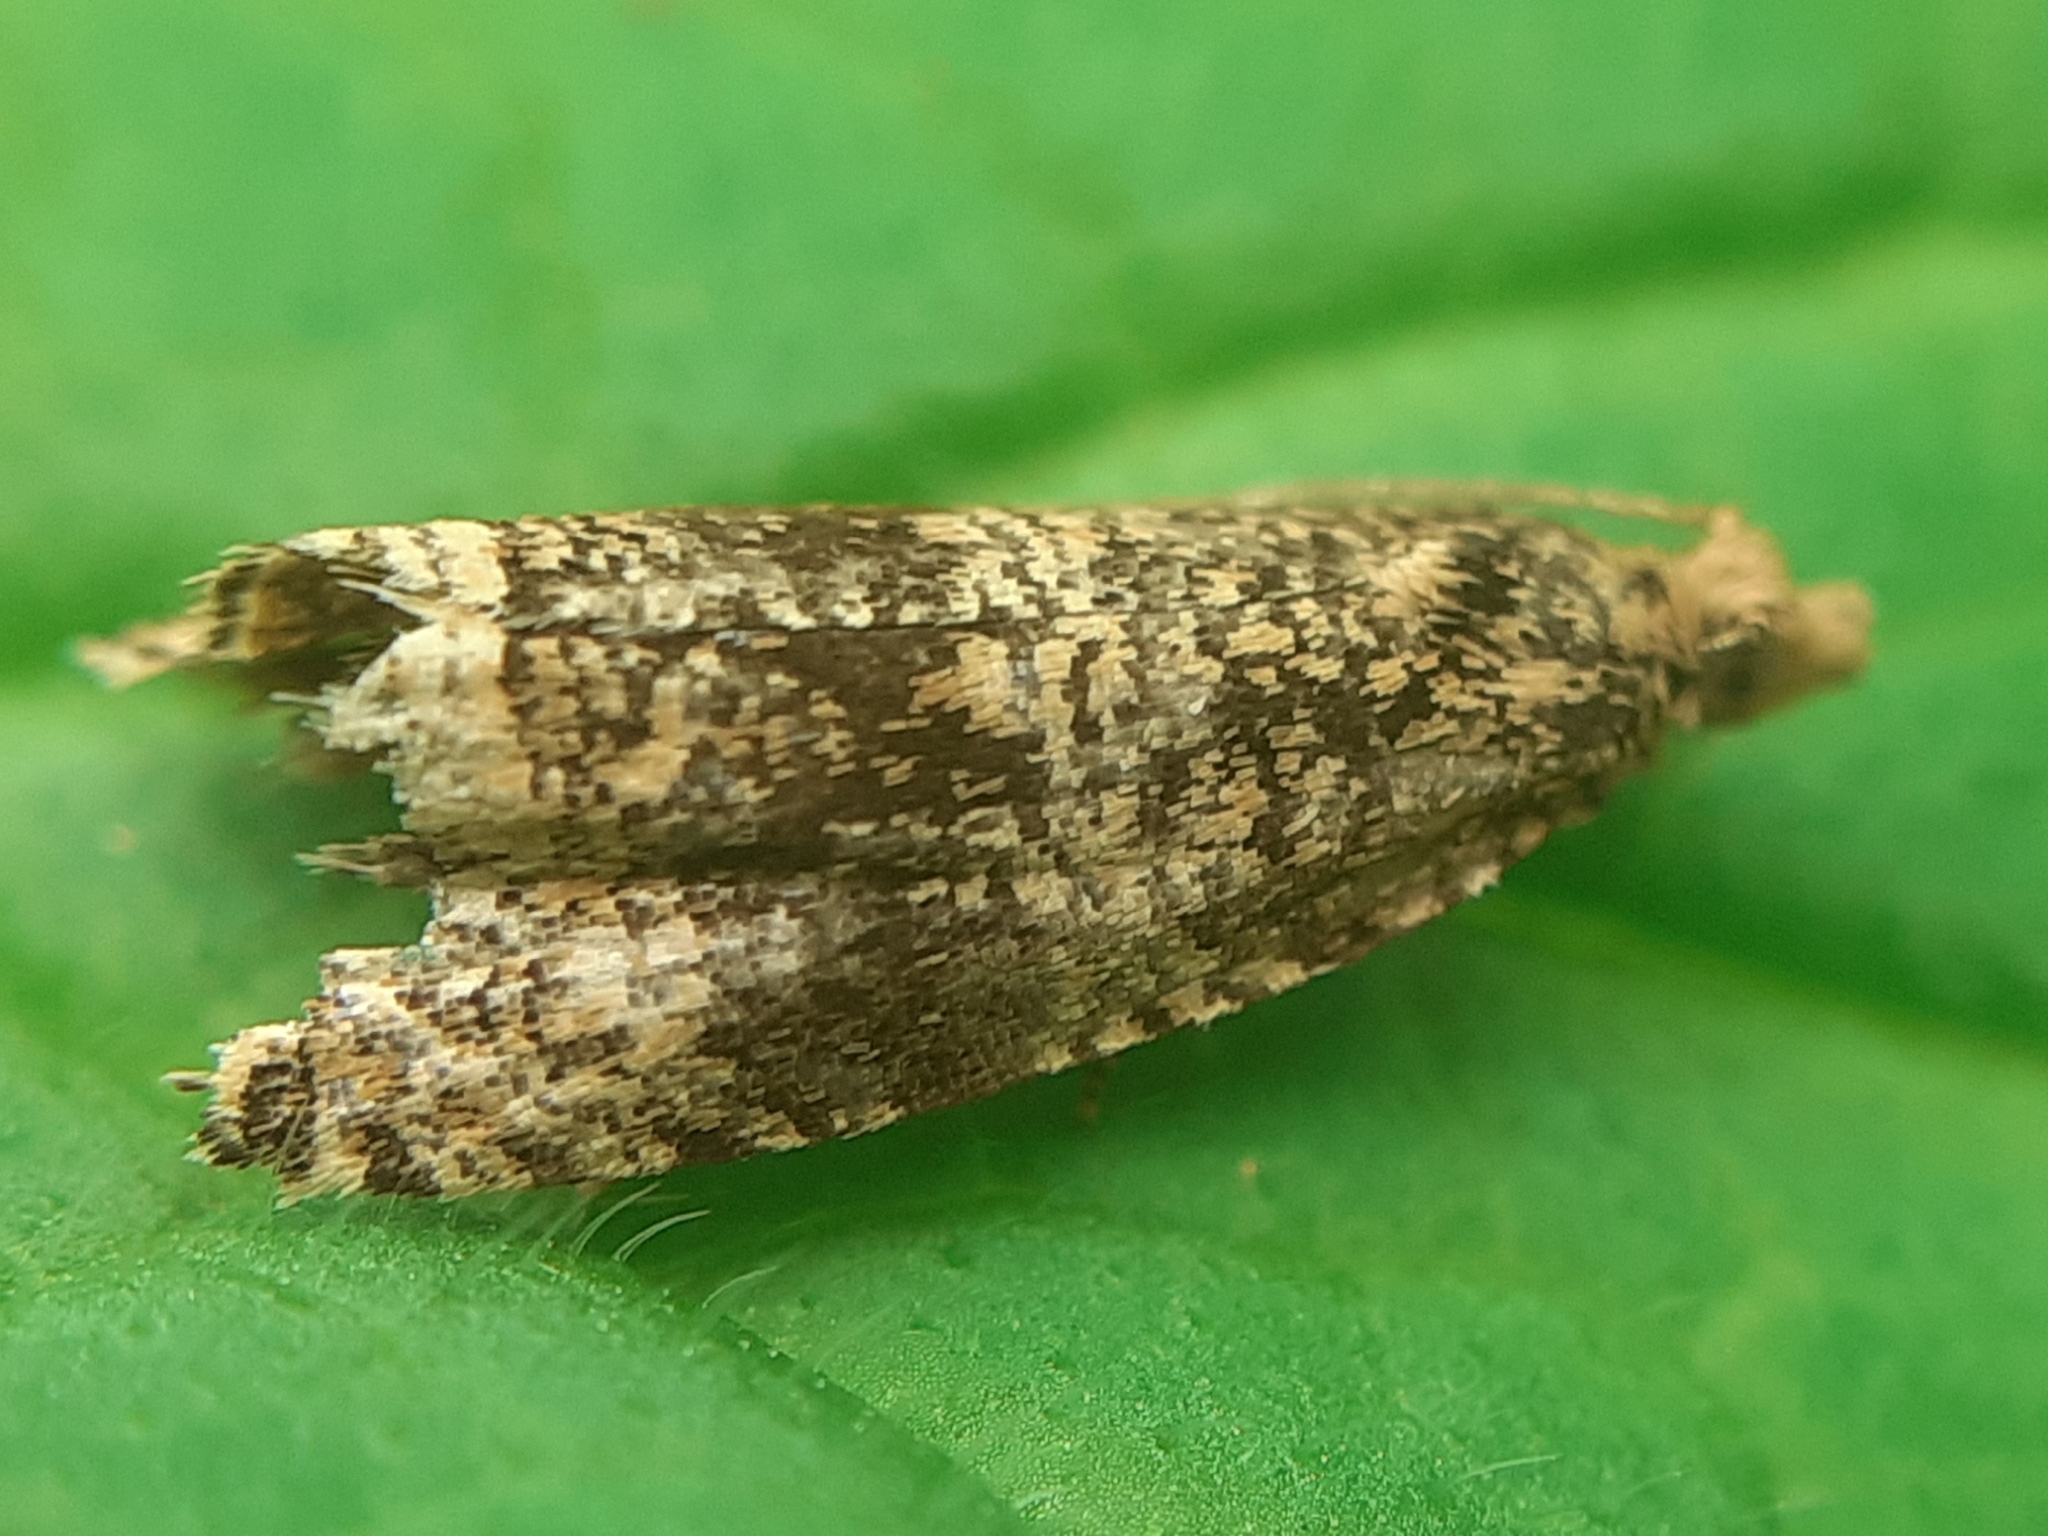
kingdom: Animalia
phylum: Arthropoda
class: Insecta
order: Lepidoptera
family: Tortricidae
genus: Syricoris
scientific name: Syricoris lacunana
